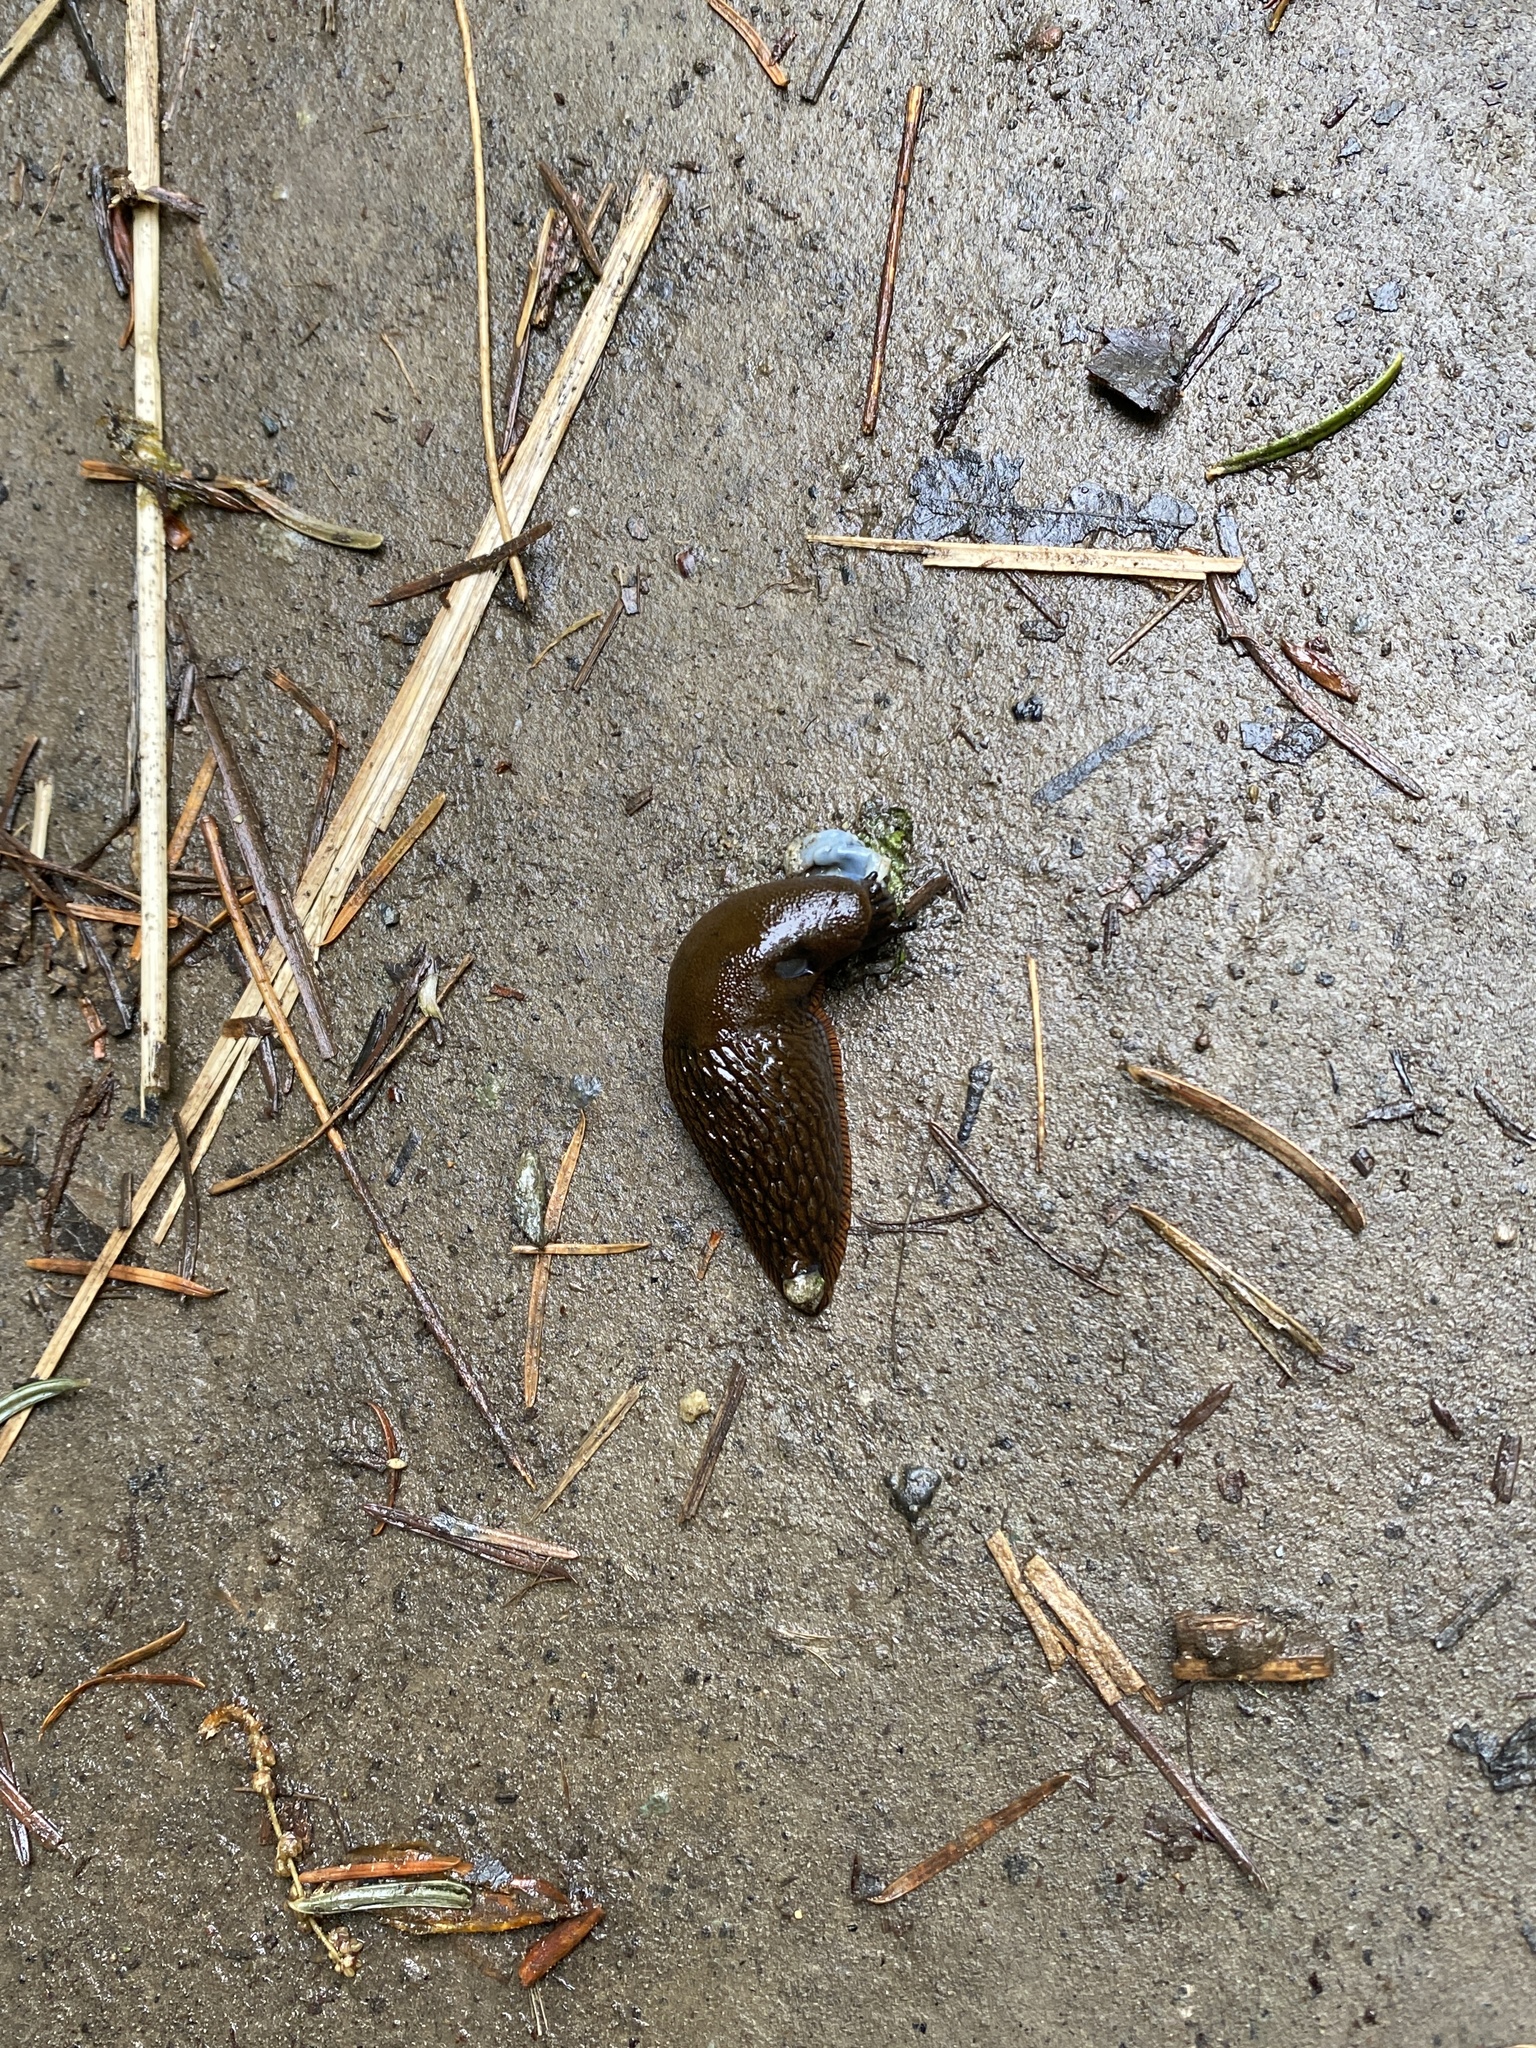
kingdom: Animalia
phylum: Mollusca
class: Gastropoda
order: Stylommatophora
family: Arionidae
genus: Arion
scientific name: Arion
